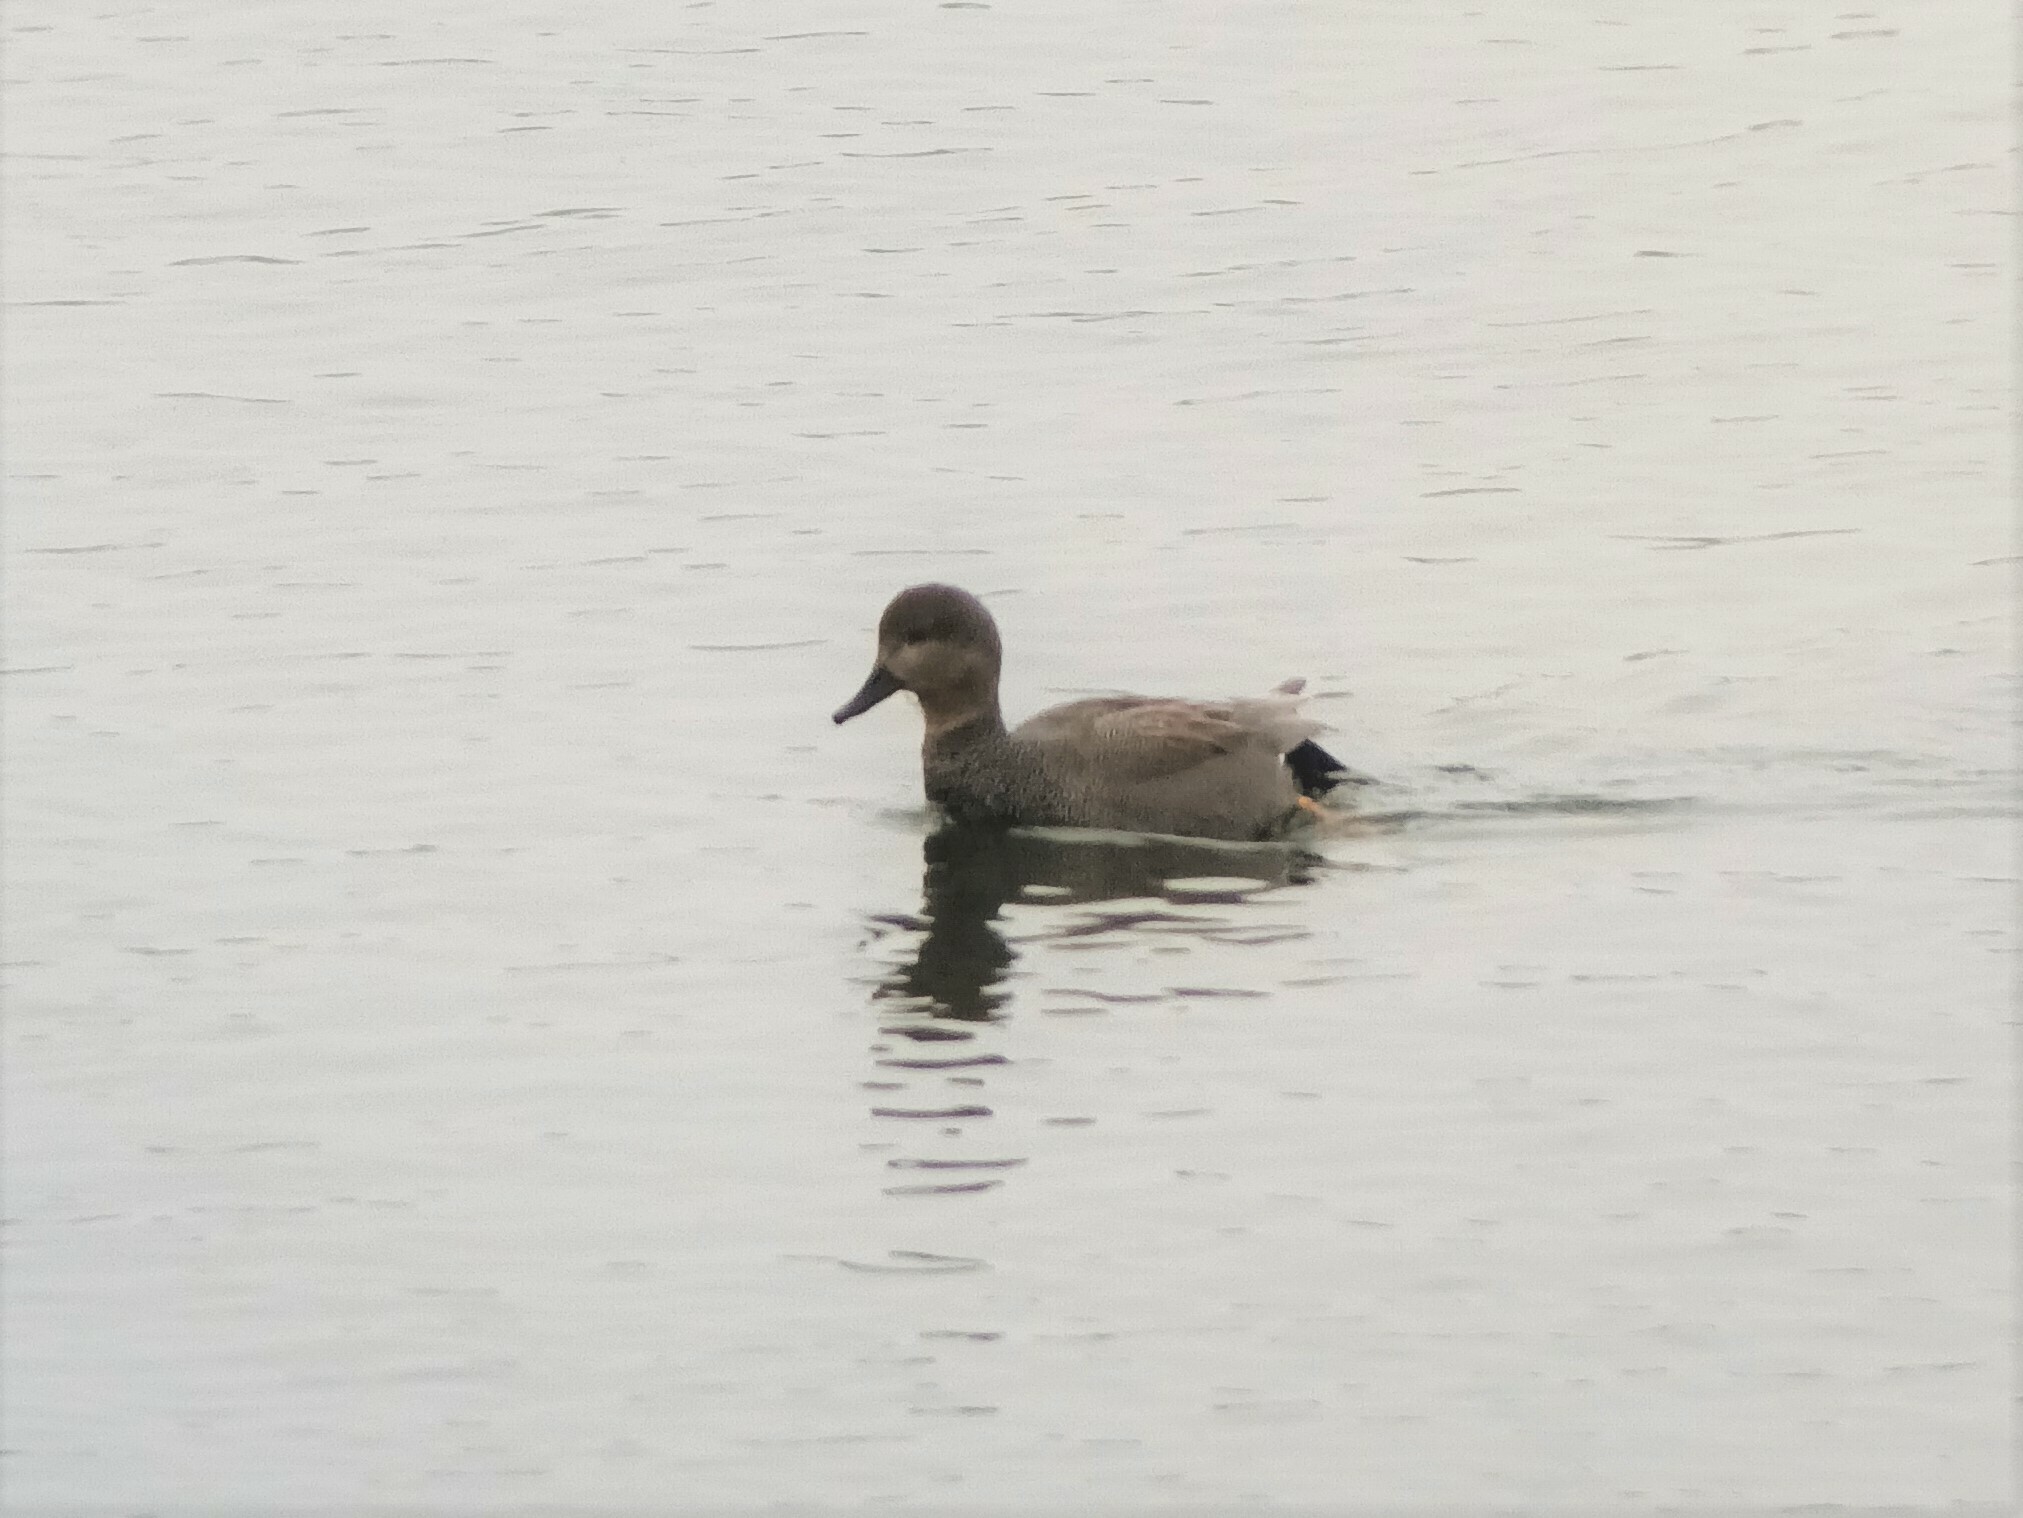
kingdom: Animalia
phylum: Chordata
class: Aves
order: Anseriformes
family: Anatidae
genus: Mareca
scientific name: Mareca strepera
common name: Gadwall
